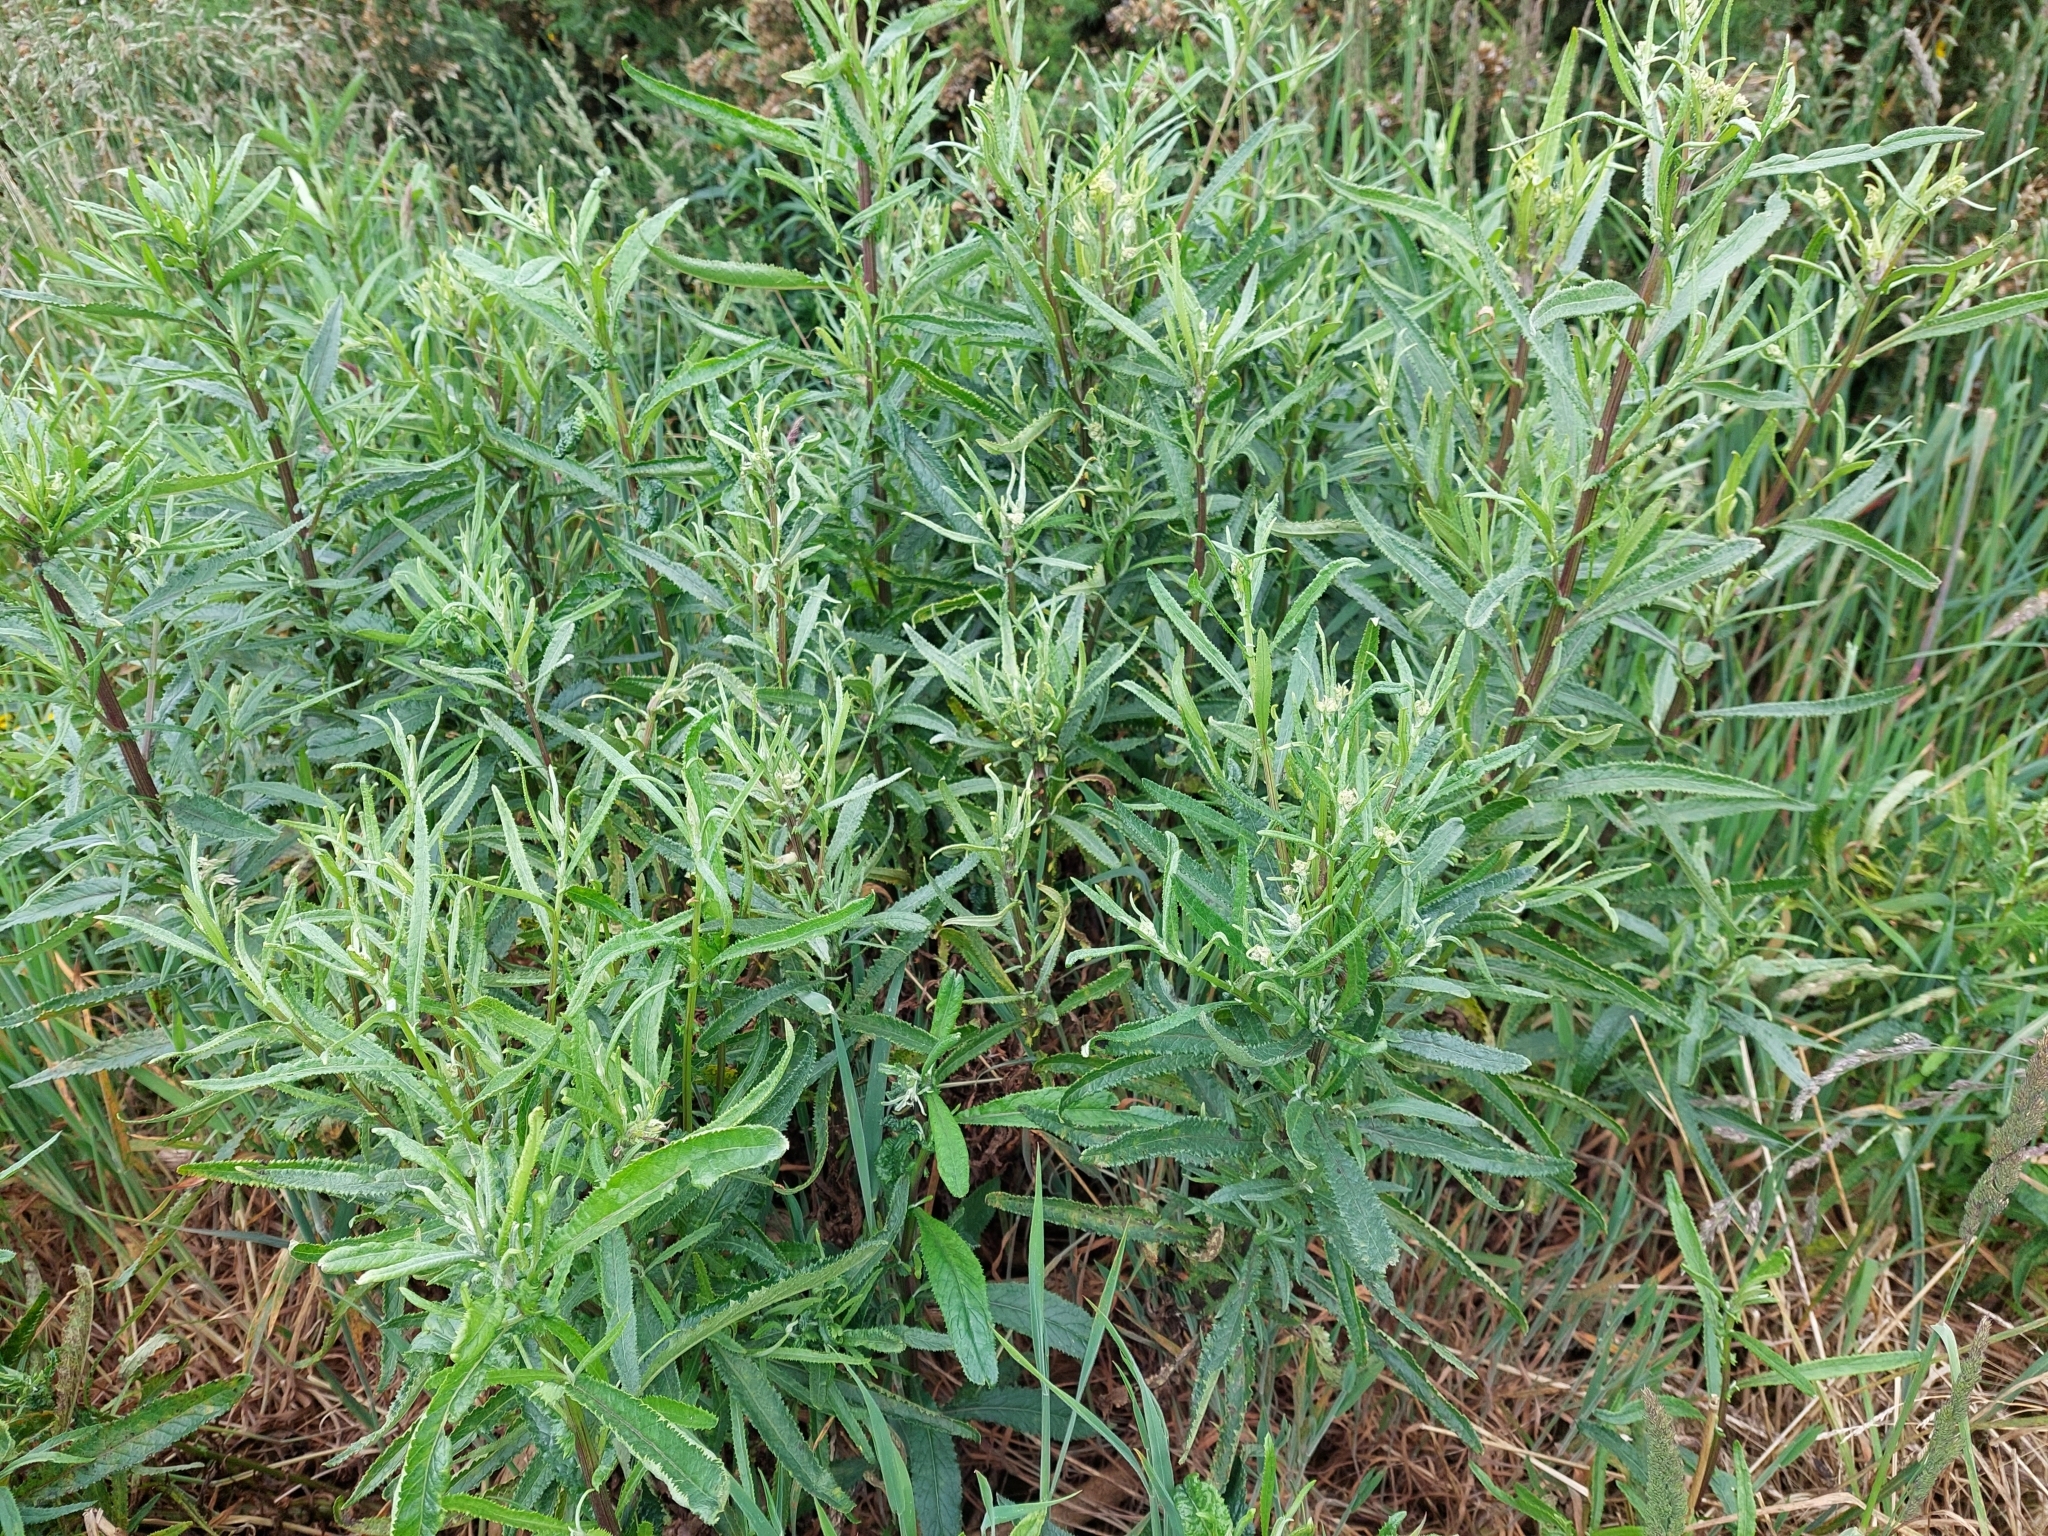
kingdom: Plantae
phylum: Tracheophyta
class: Magnoliopsida
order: Asterales
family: Asteraceae
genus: Senecio
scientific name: Senecio minimus
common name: Toothed fireweed
